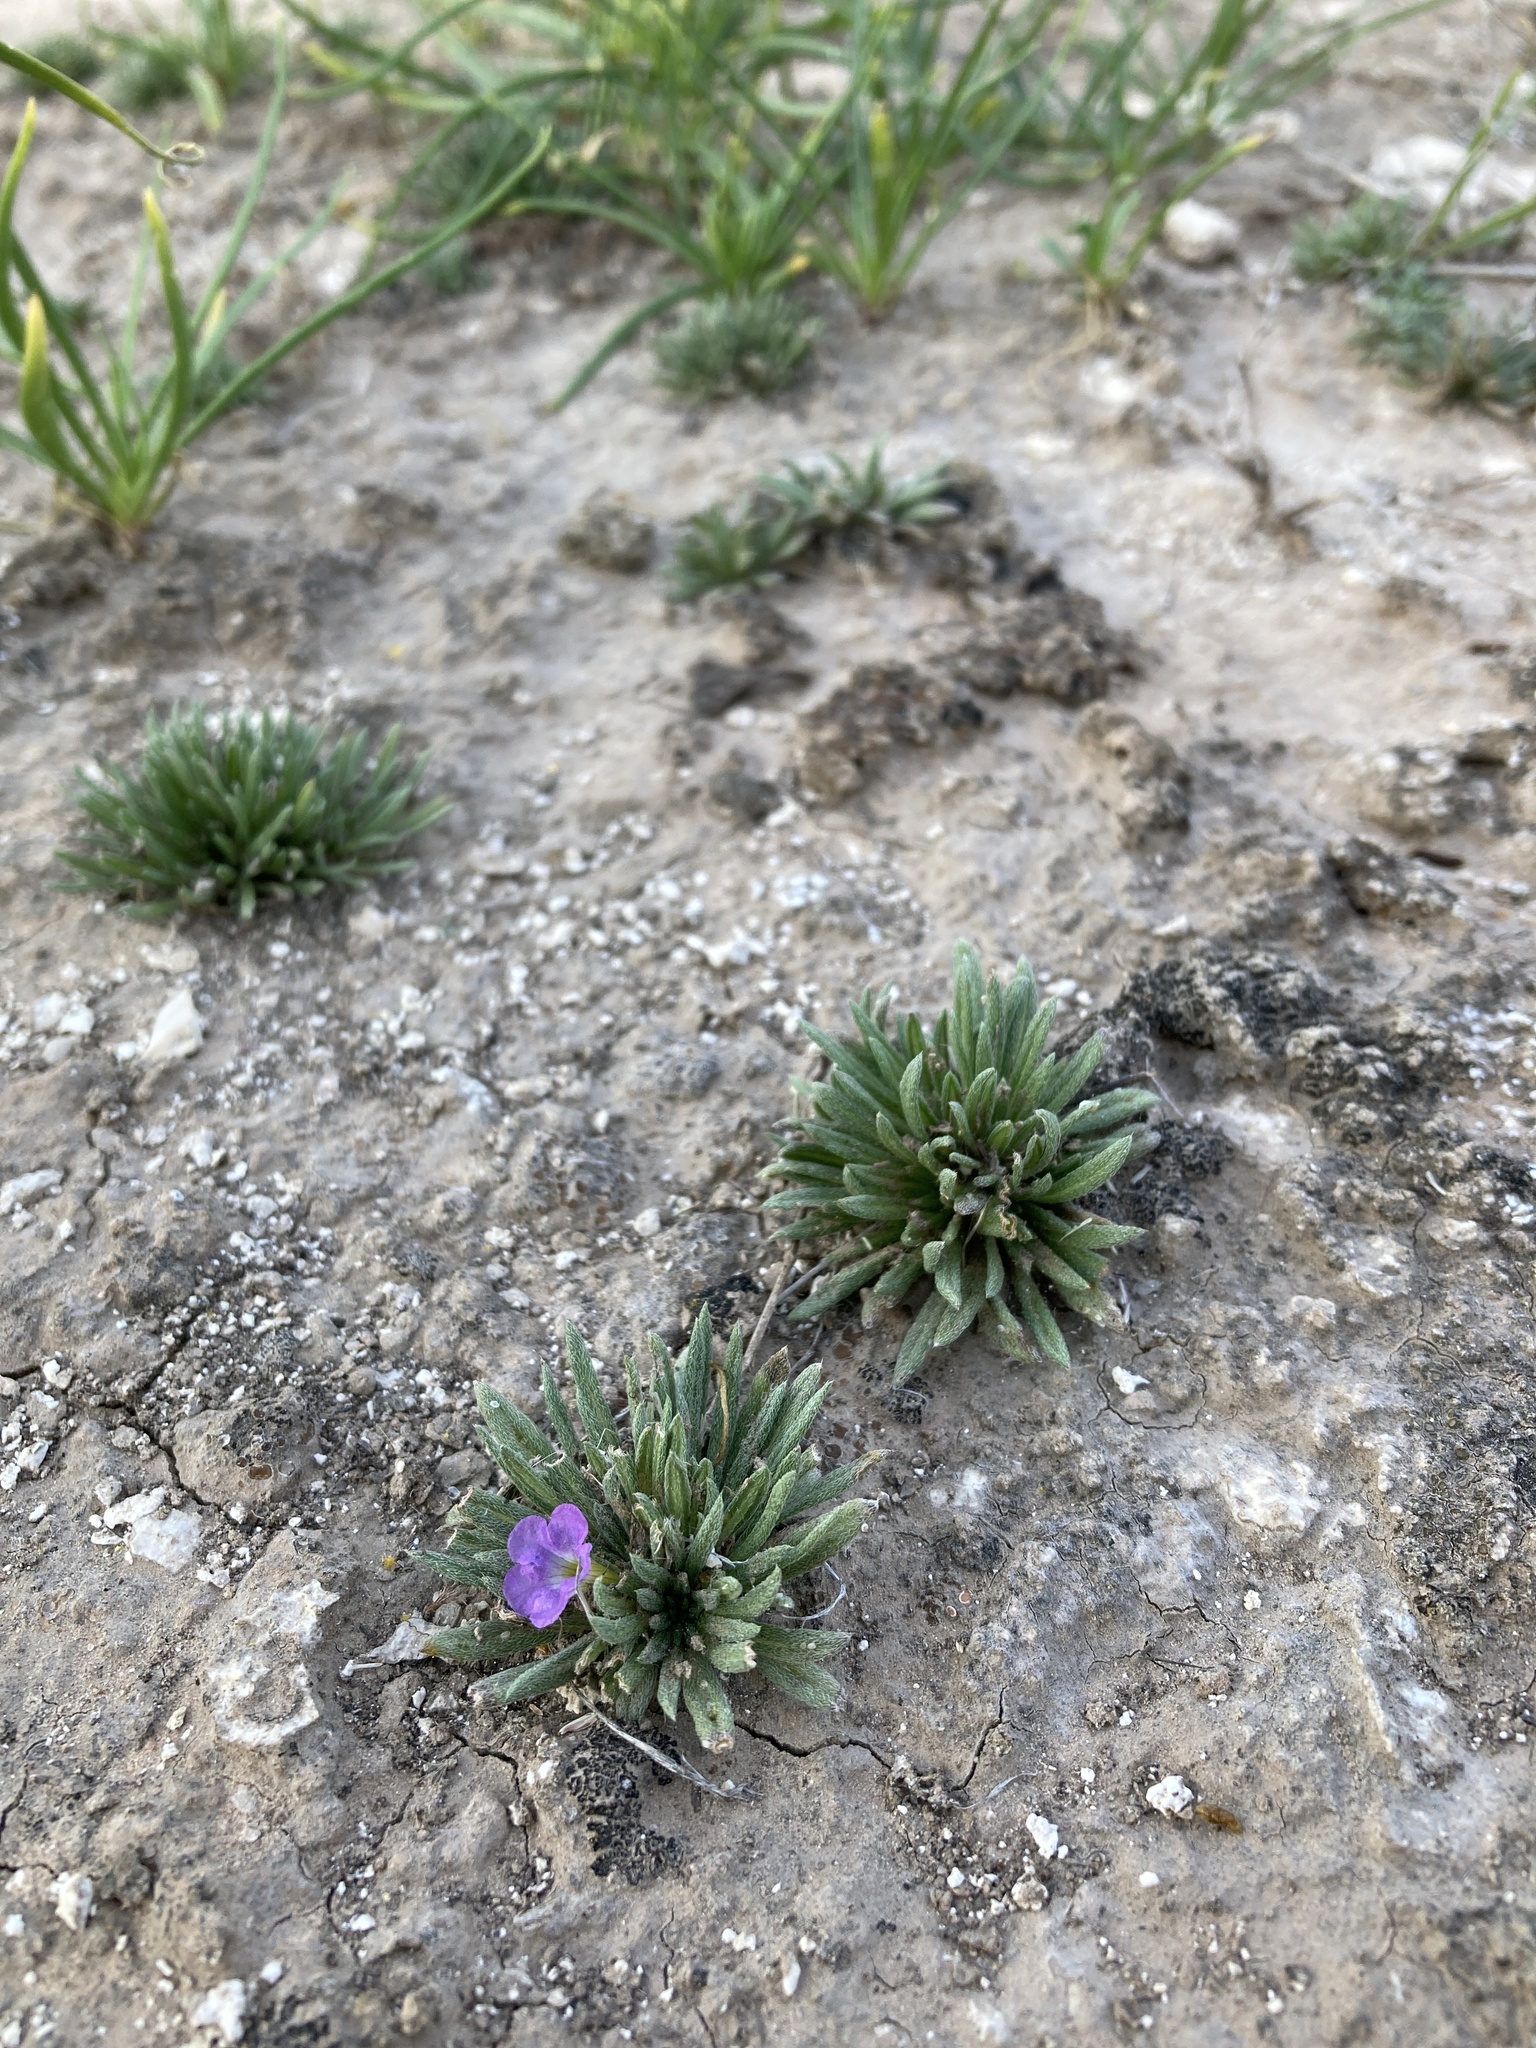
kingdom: Plantae
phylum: Tracheophyta
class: Magnoliopsida
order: Boraginales
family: Namaceae
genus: Nama
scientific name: Nama stevensii
